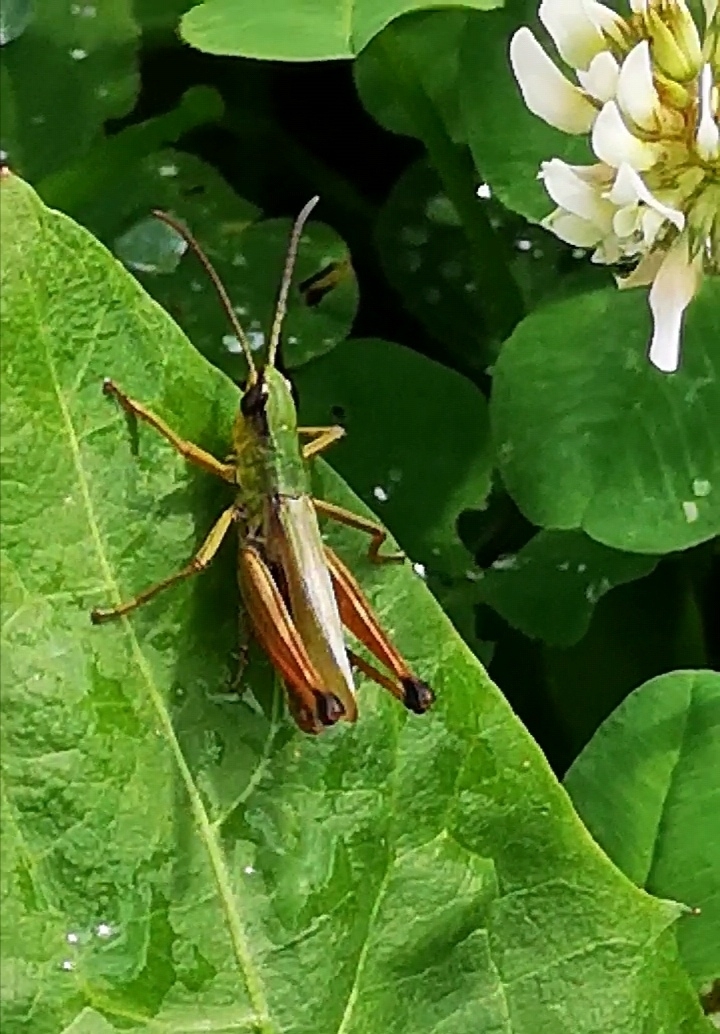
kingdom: Animalia
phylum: Arthropoda
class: Insecta
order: Orthoptera
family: Acrididae
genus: Pseudochorthippus
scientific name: Pseudochorthippus parallelus
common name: Meadow grasshopper
